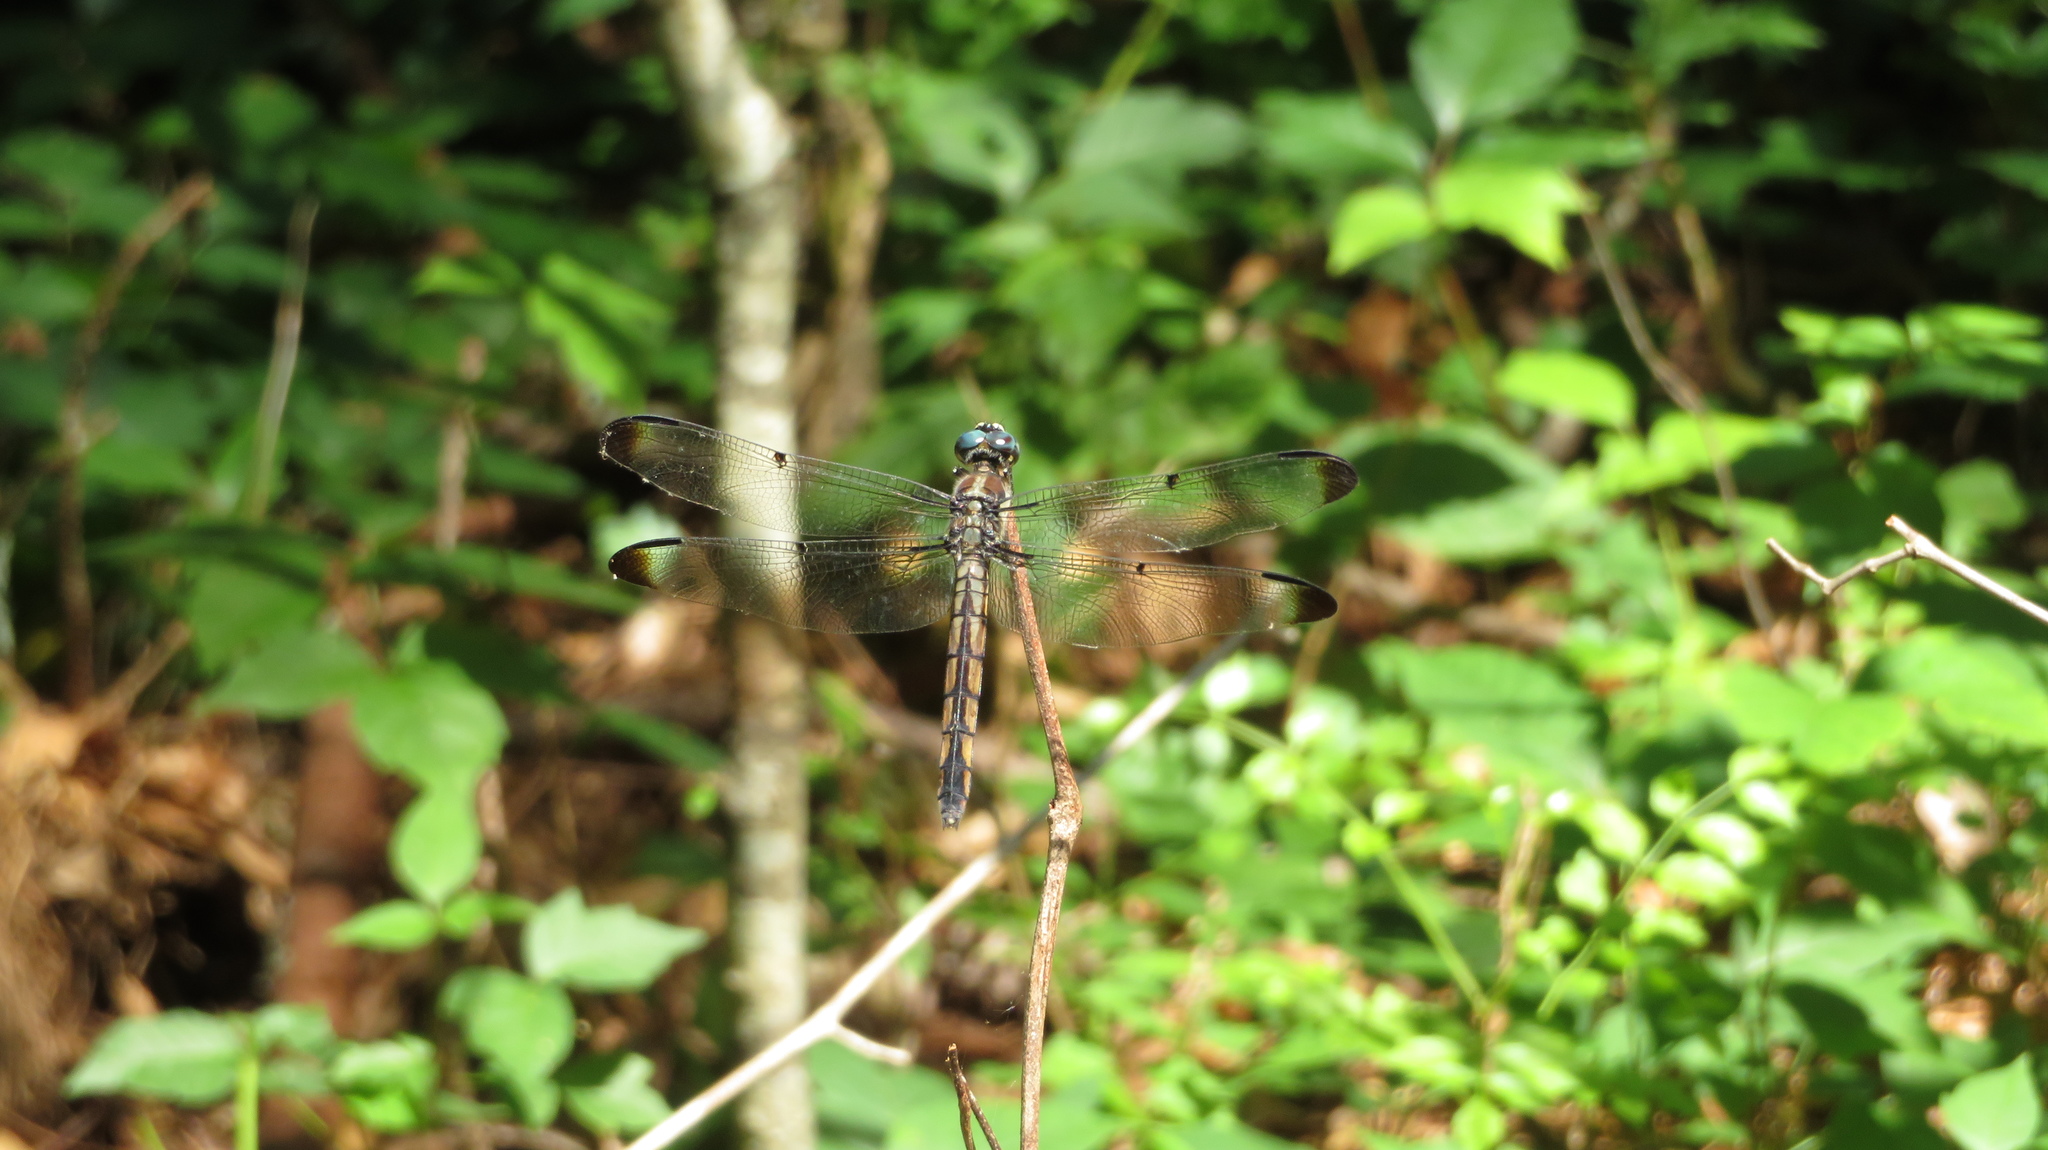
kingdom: Animalia
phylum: Arthropoda
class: Insecta
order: Odonata
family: Libellulidae
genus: Libellula
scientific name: Libellula vibrans
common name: Great blue skimmer
